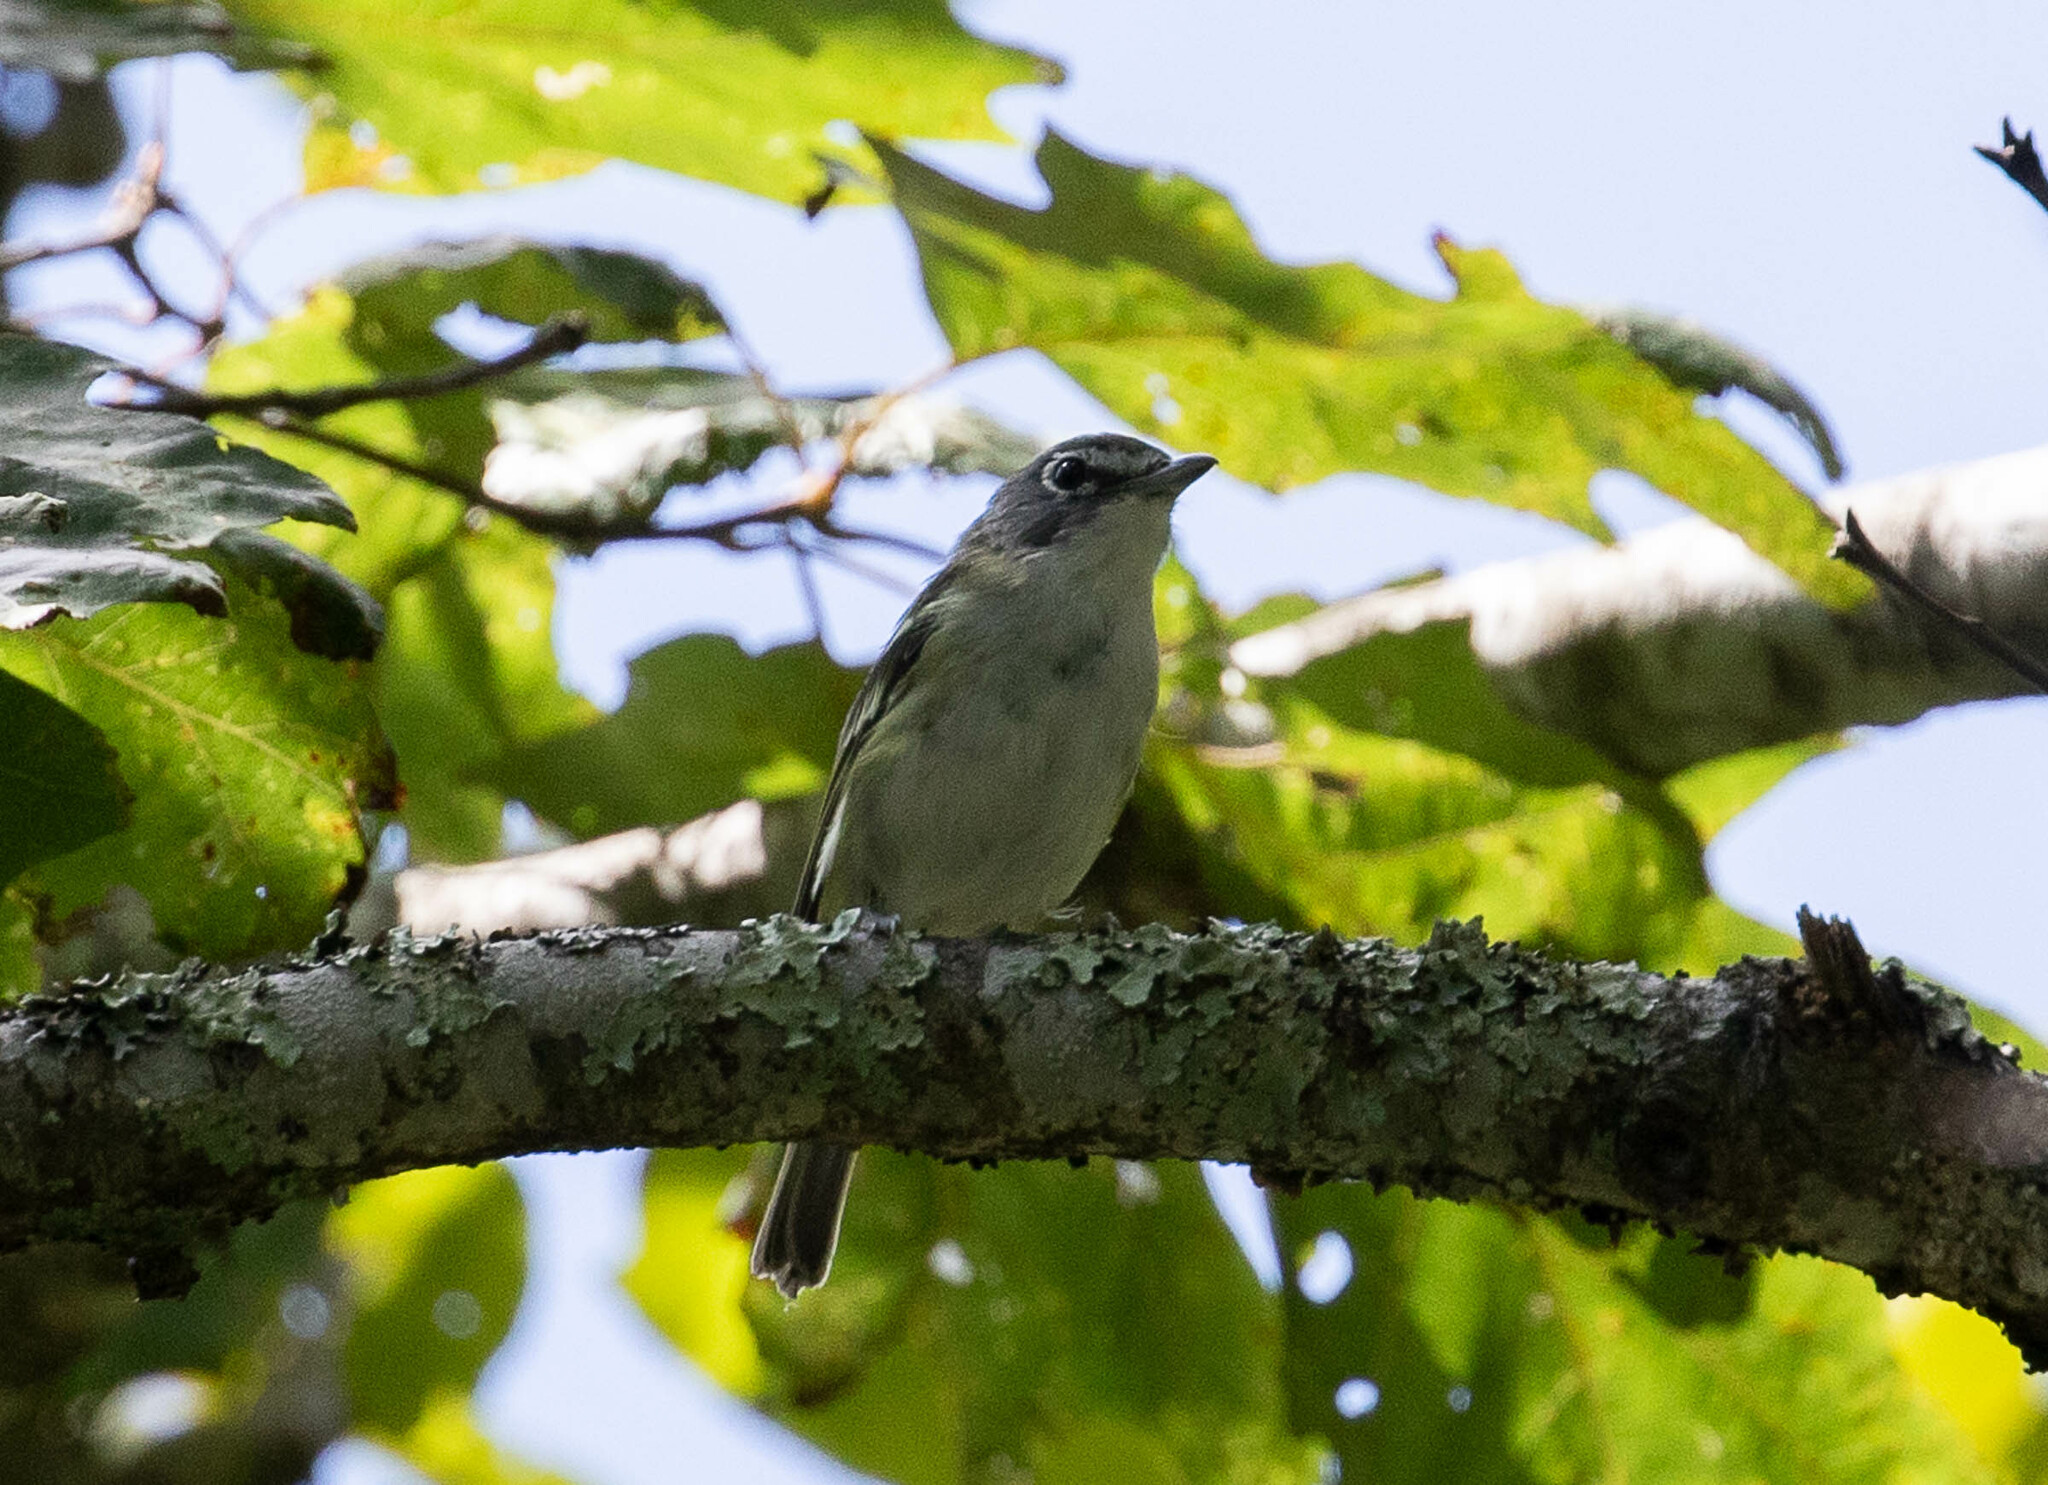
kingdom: Animalia
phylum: Chordata
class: Aves
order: Passeriformes
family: Vireonidae
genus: Vireo
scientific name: Vireo solitarius
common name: Blue-headed vireo
